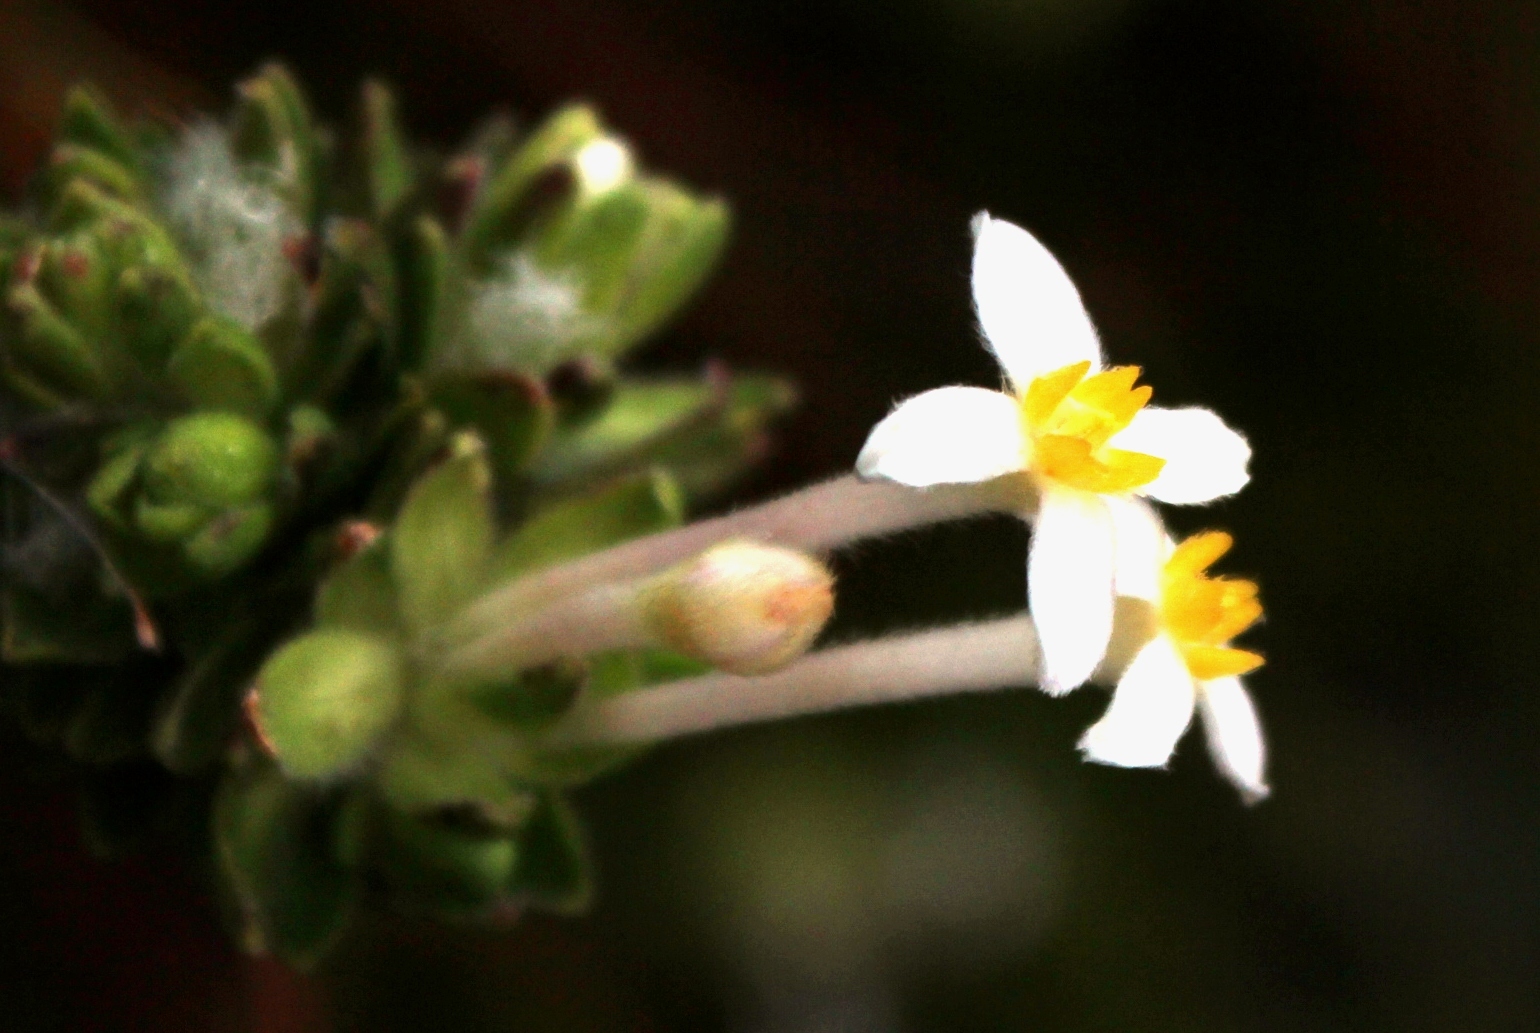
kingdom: Plantae
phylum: Tracheophyta
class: Magnoliopsida
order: Malvales
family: Thymelaeaceae
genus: Gnidia
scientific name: Gnidia tomentosa
